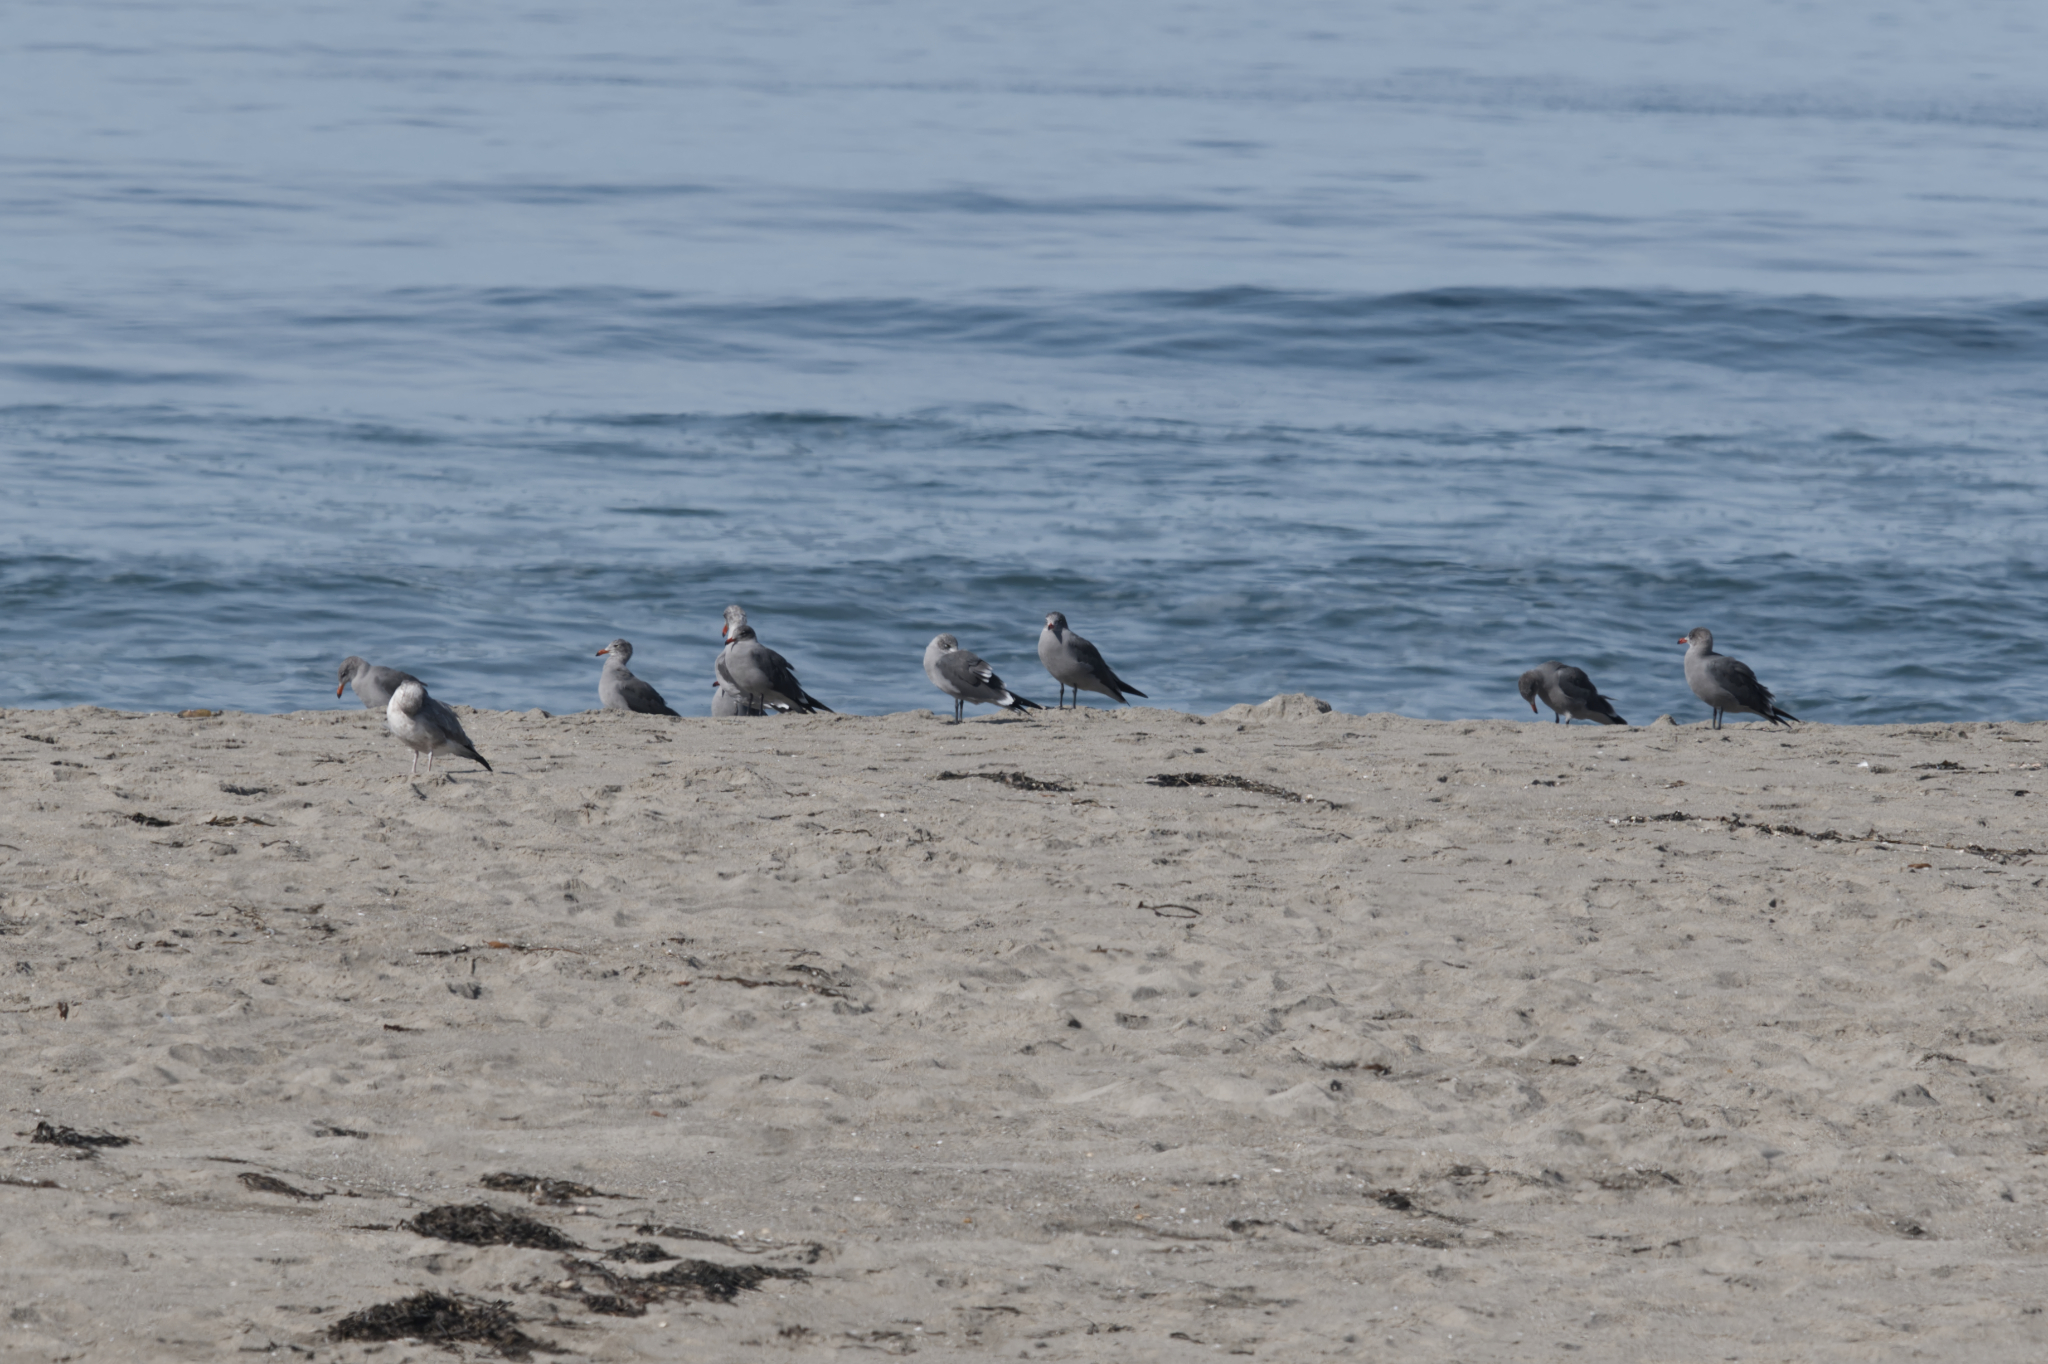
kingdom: Animalia
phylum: Chordata
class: Aves
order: Charadriiformes
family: Laridae
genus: Larus
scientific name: Larus heermanni
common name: Heermann's gull
